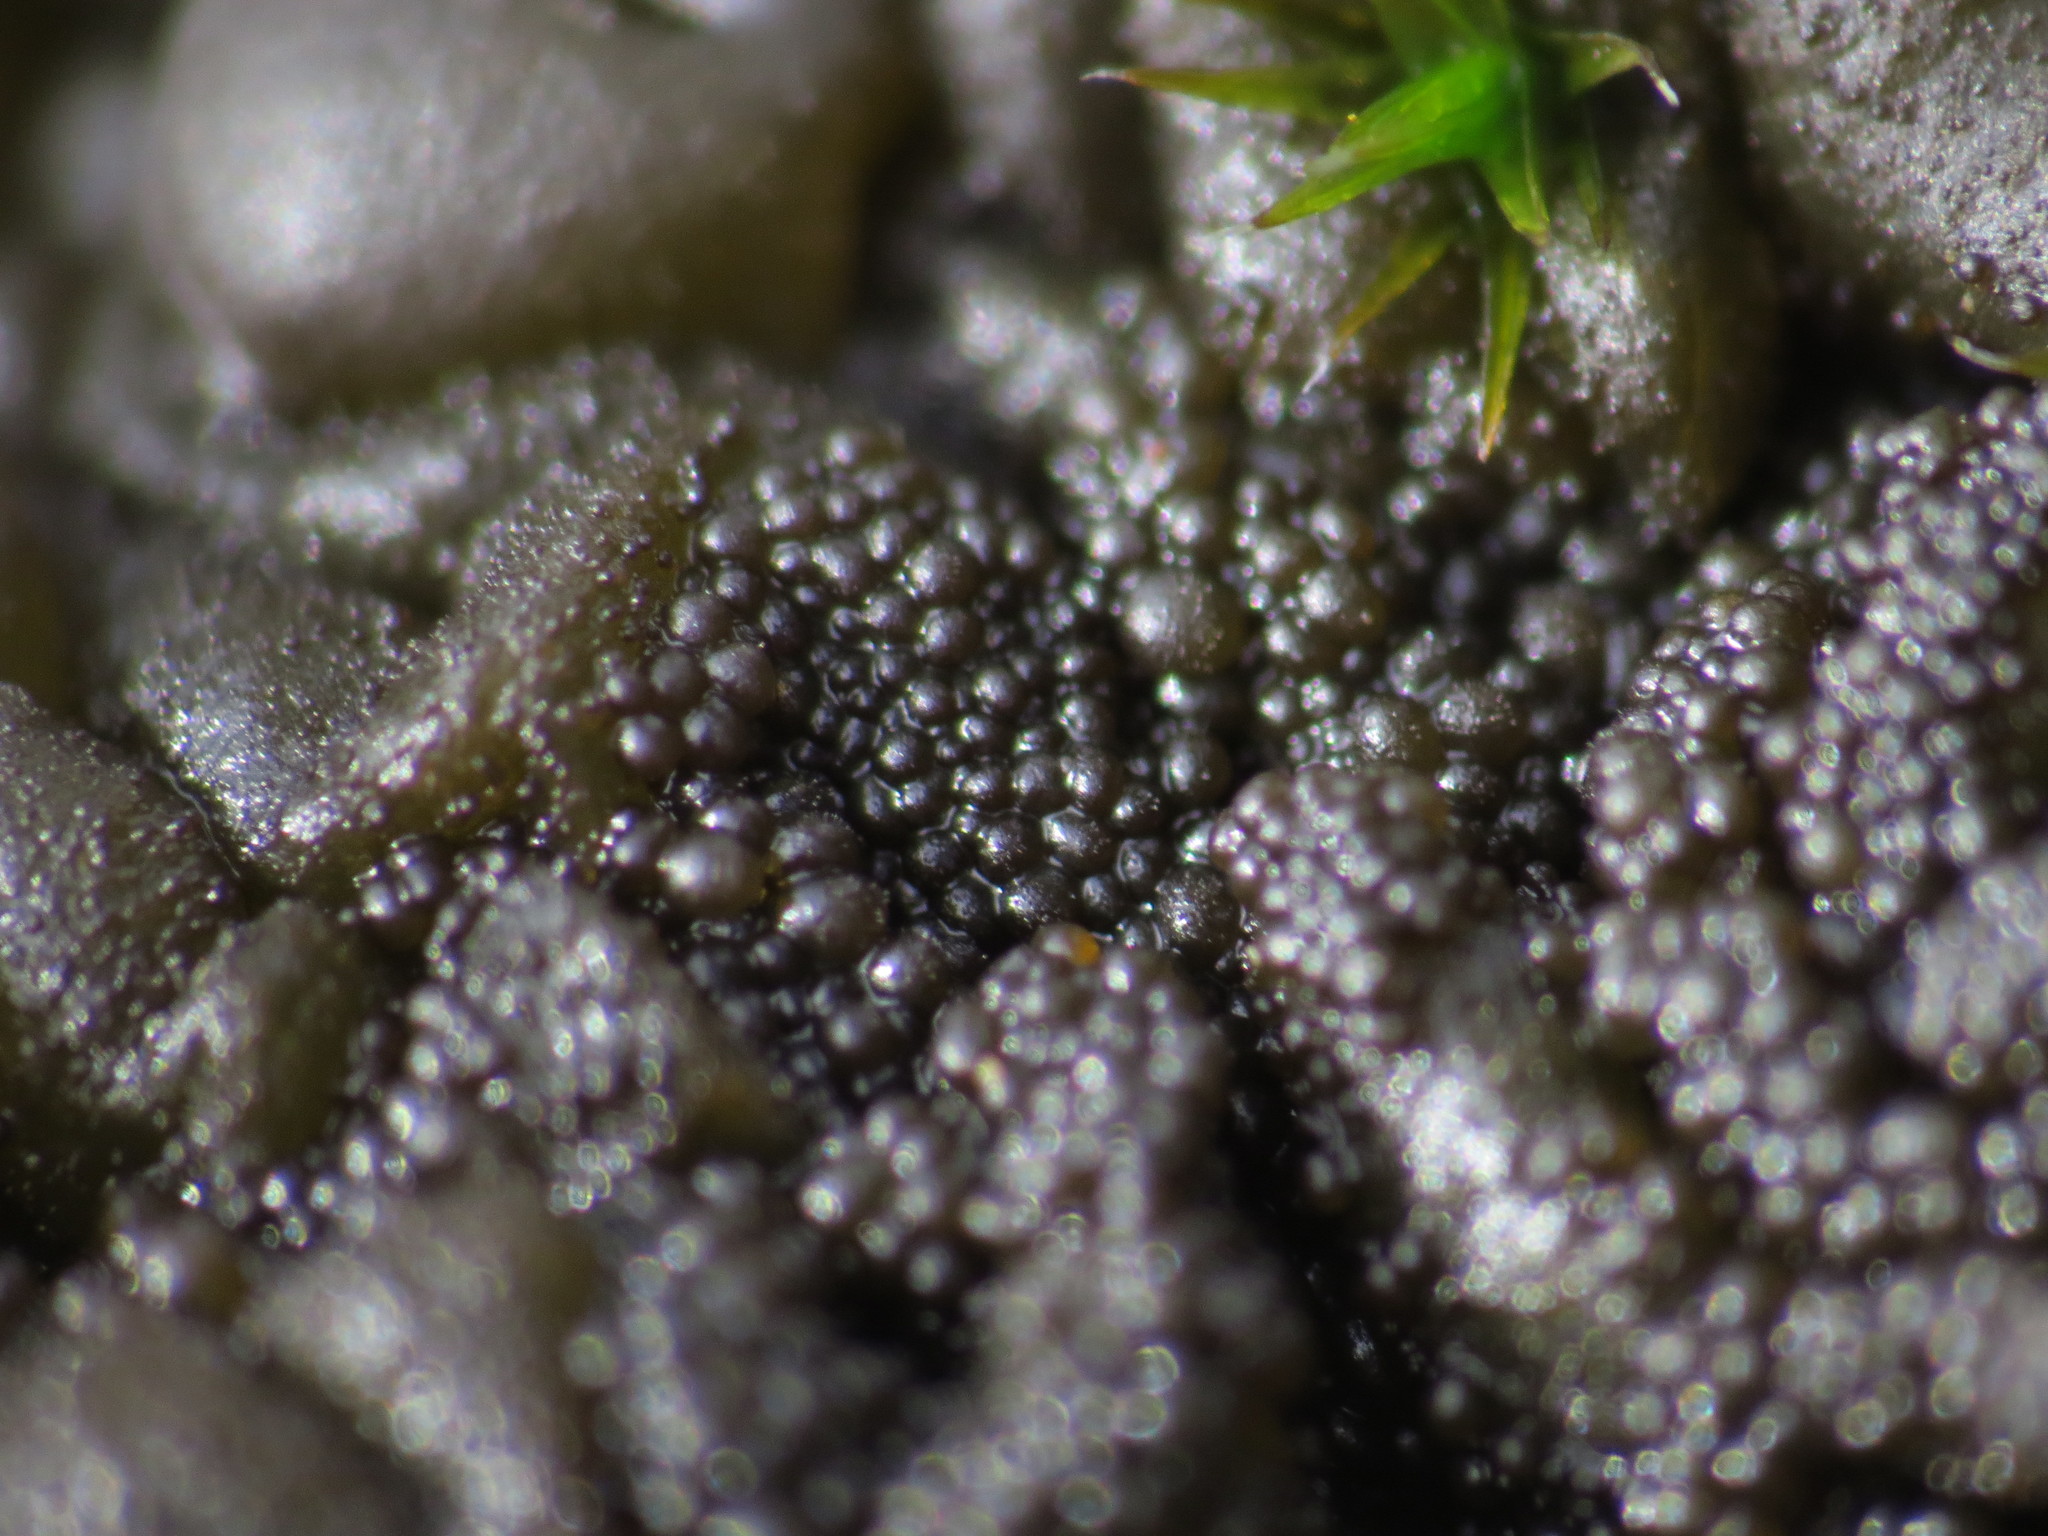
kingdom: Fungi
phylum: Ascomycota
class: Lecanoromycetes
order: Peltigerales
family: Collemataceae
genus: Enchylium
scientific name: Enchylium tenax
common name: Jelly lichen
